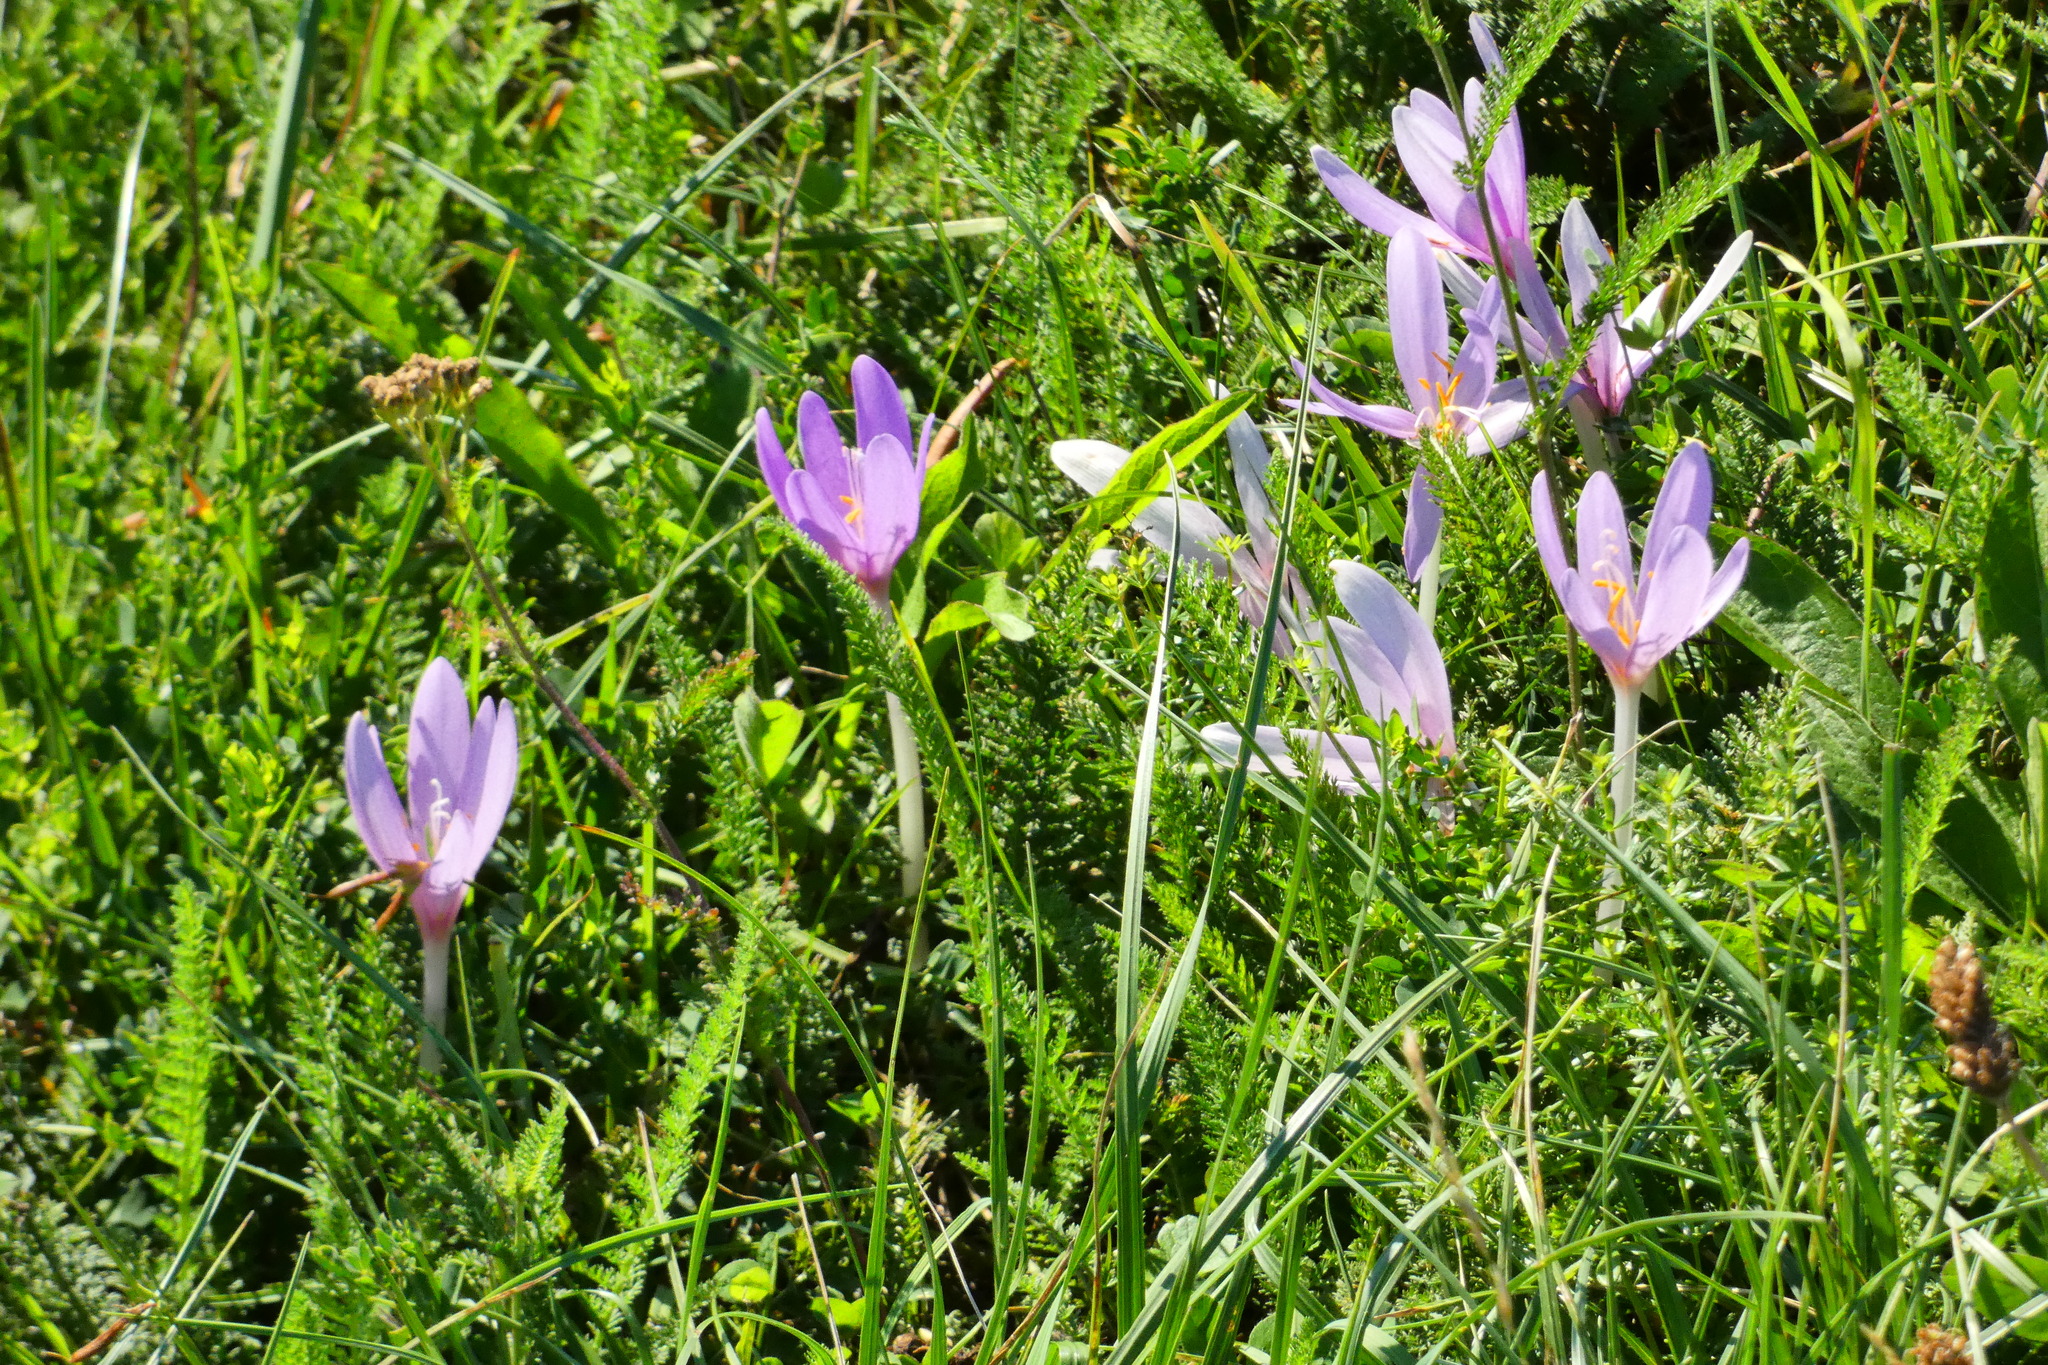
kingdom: Plantae
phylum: Tracheophyta
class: Liliopsida
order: Liliales
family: Colchicaceae
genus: Colchicum
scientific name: Colchicum autumnale
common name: Autumn crocus
